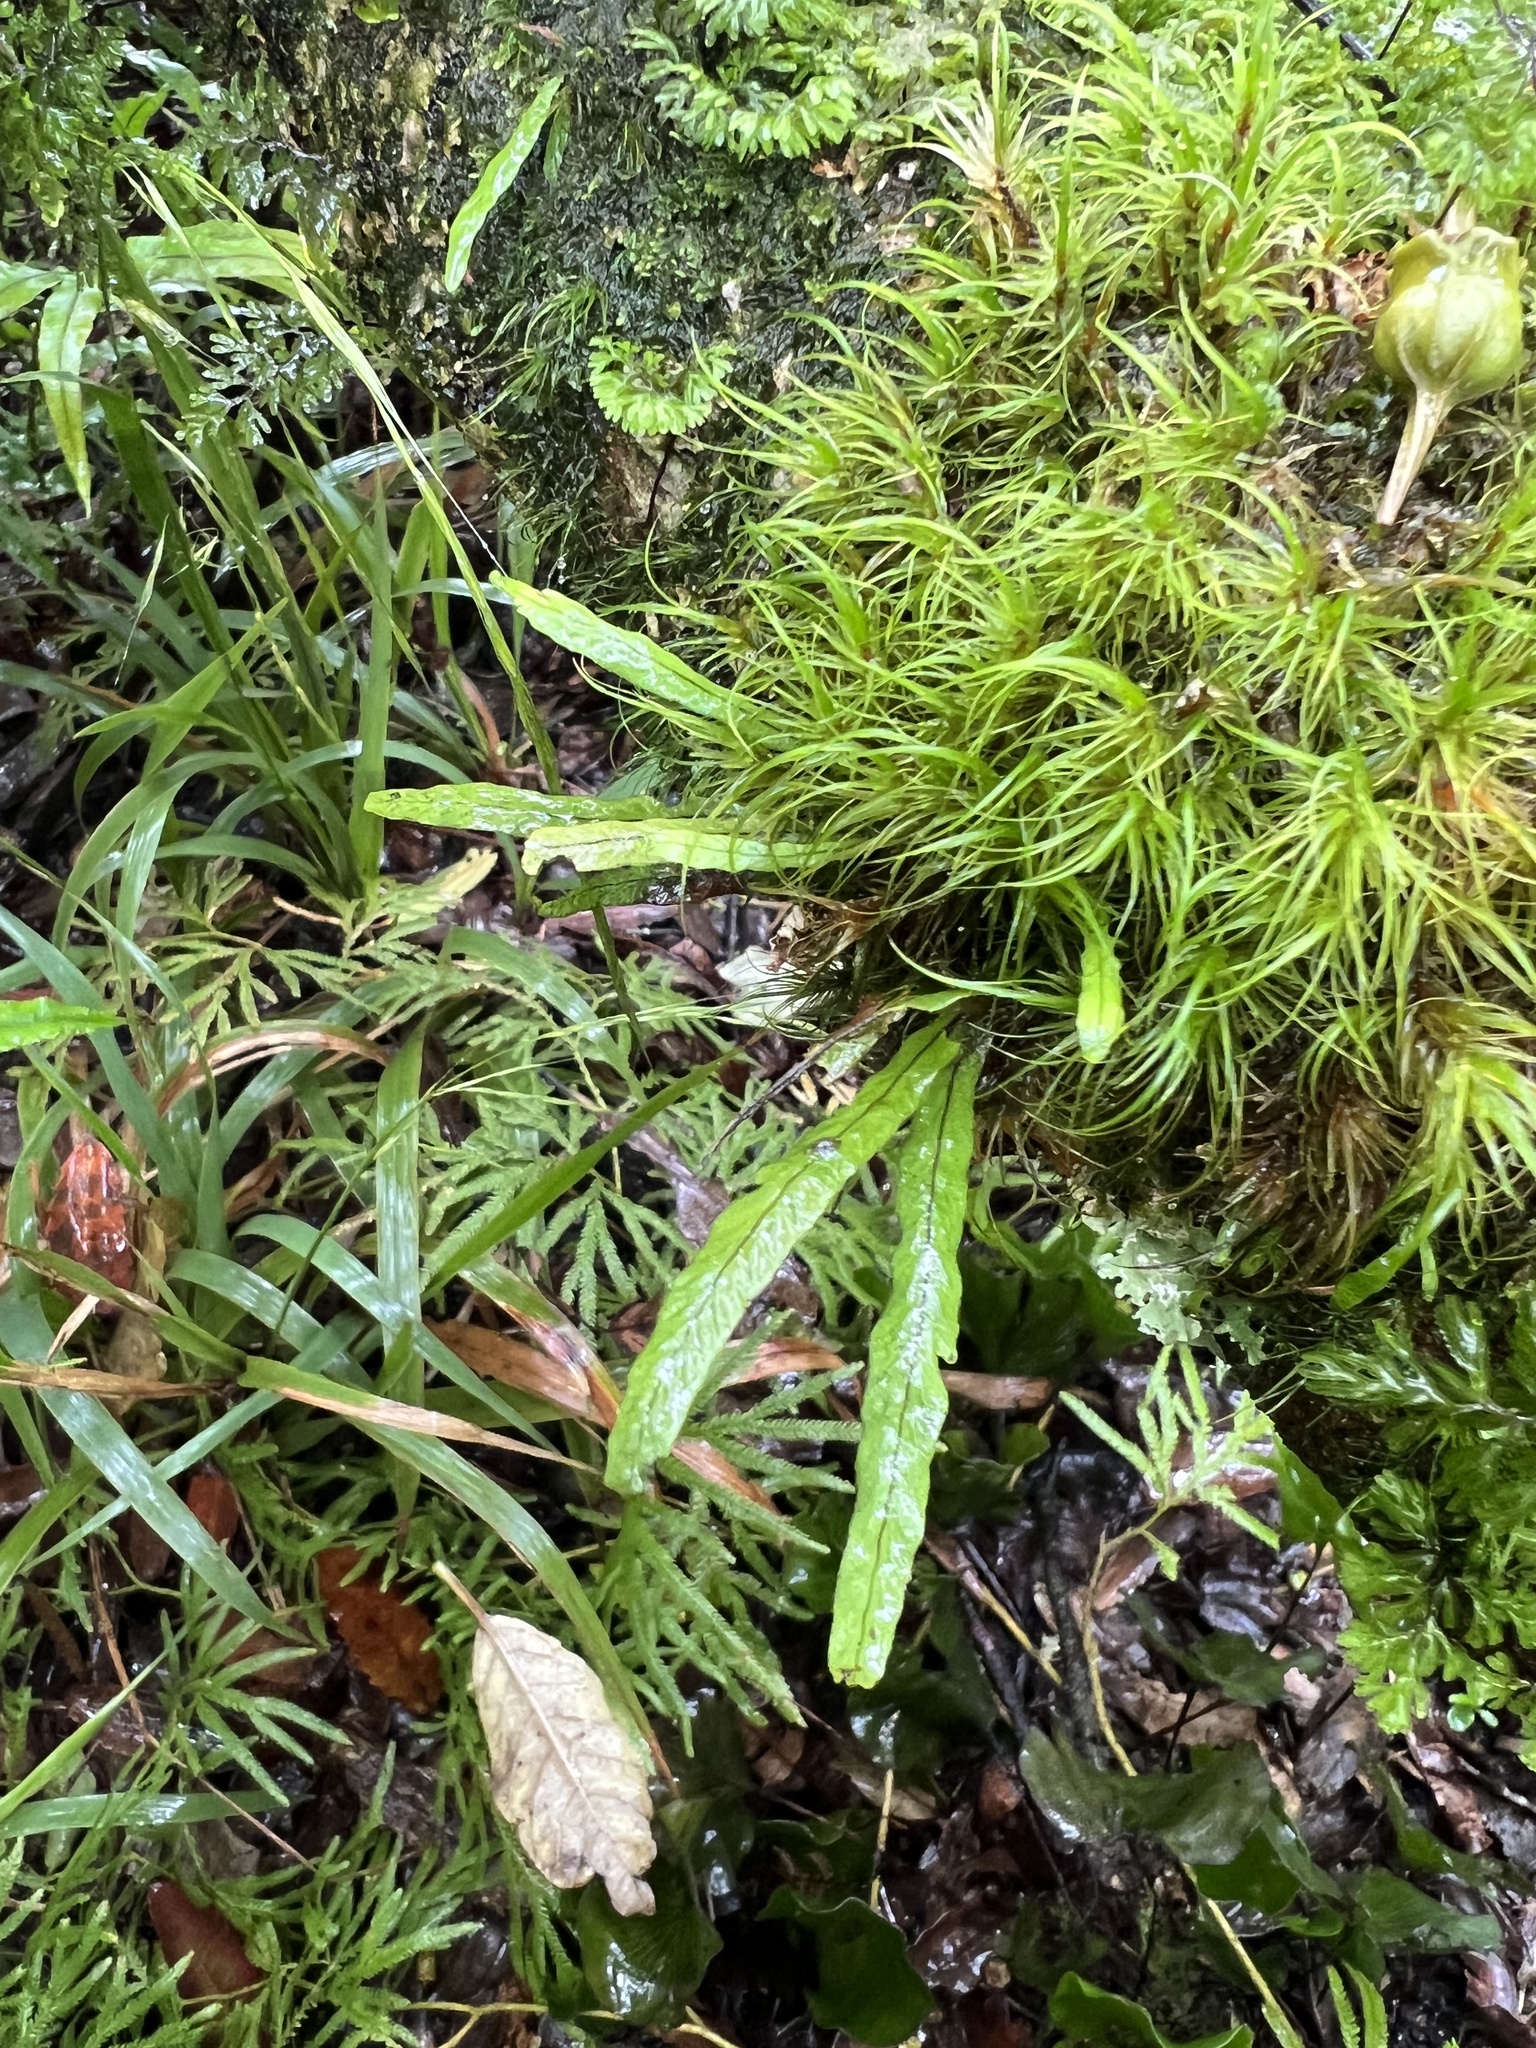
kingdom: Plantae
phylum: Tracheophyta
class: Polypodiopsida
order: Polypodiales
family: Polypodiaceae
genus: Notogrammitis
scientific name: Notogrammitis angustifolia
